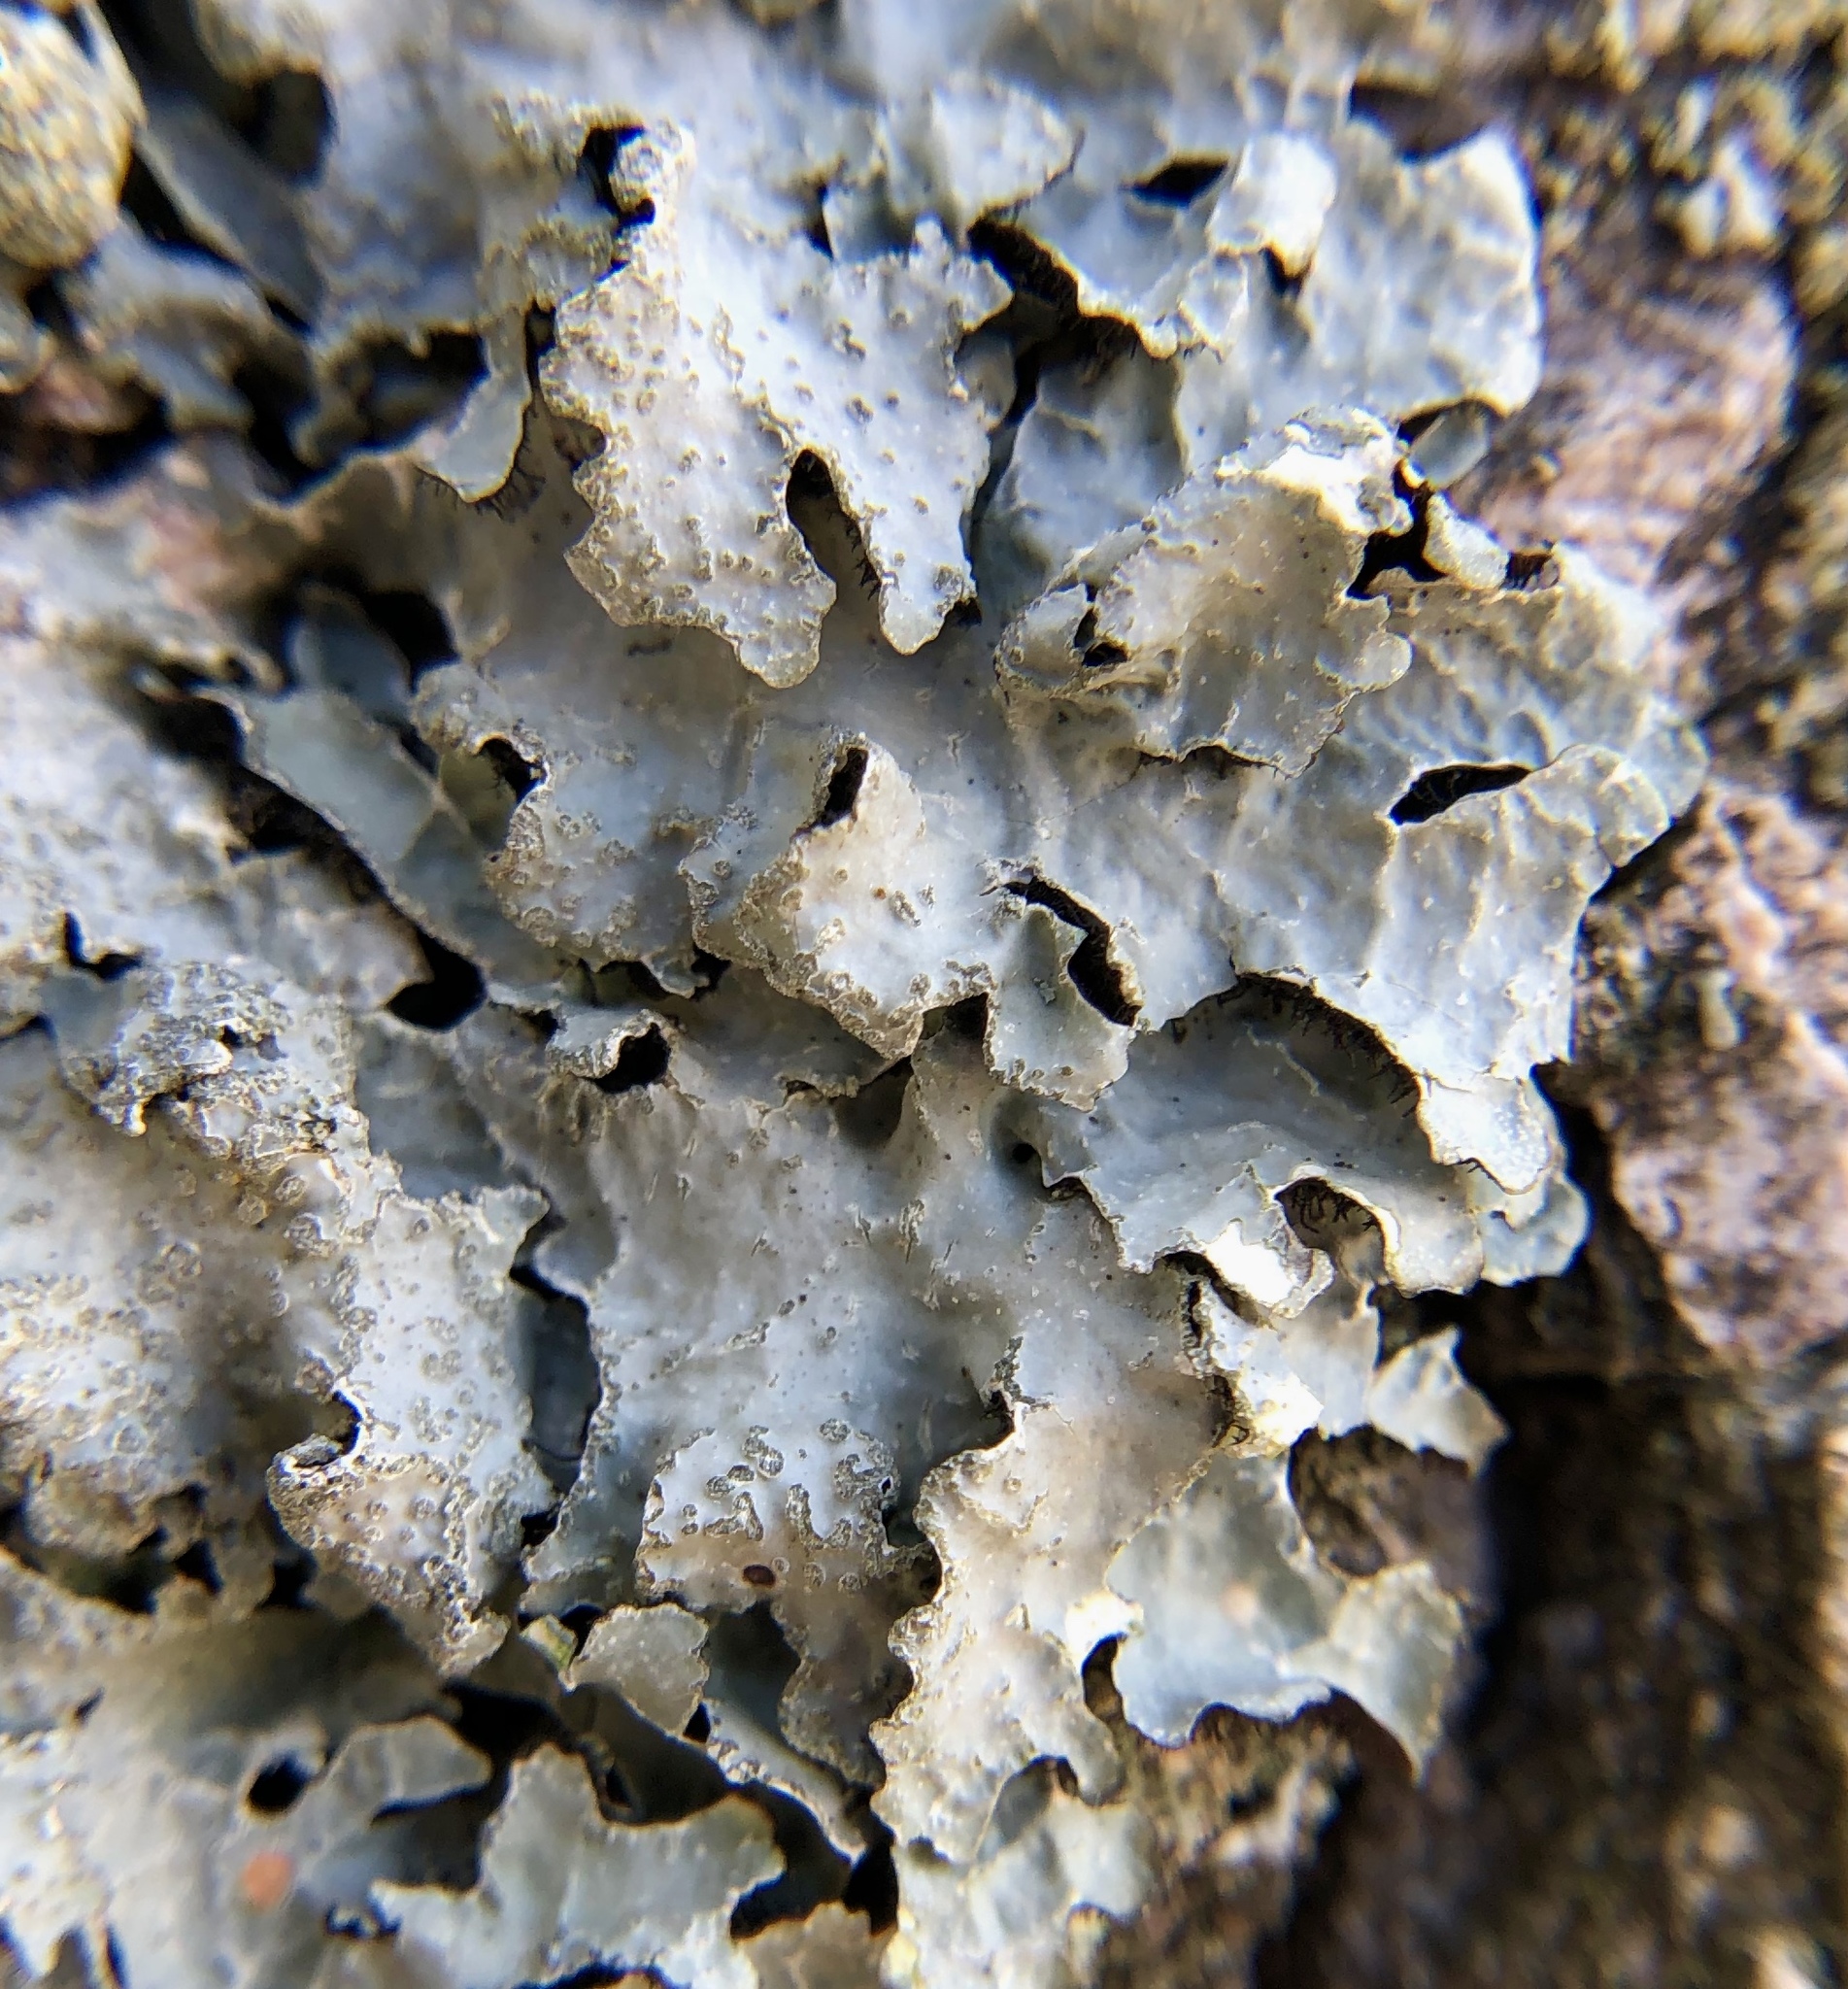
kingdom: Fungi
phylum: Ascomycota
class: Lecanoromycetes
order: Lecanorales
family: Parmeliaceae
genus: Parmelia
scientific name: Parmelia sulcata
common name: Netted shield lichen
